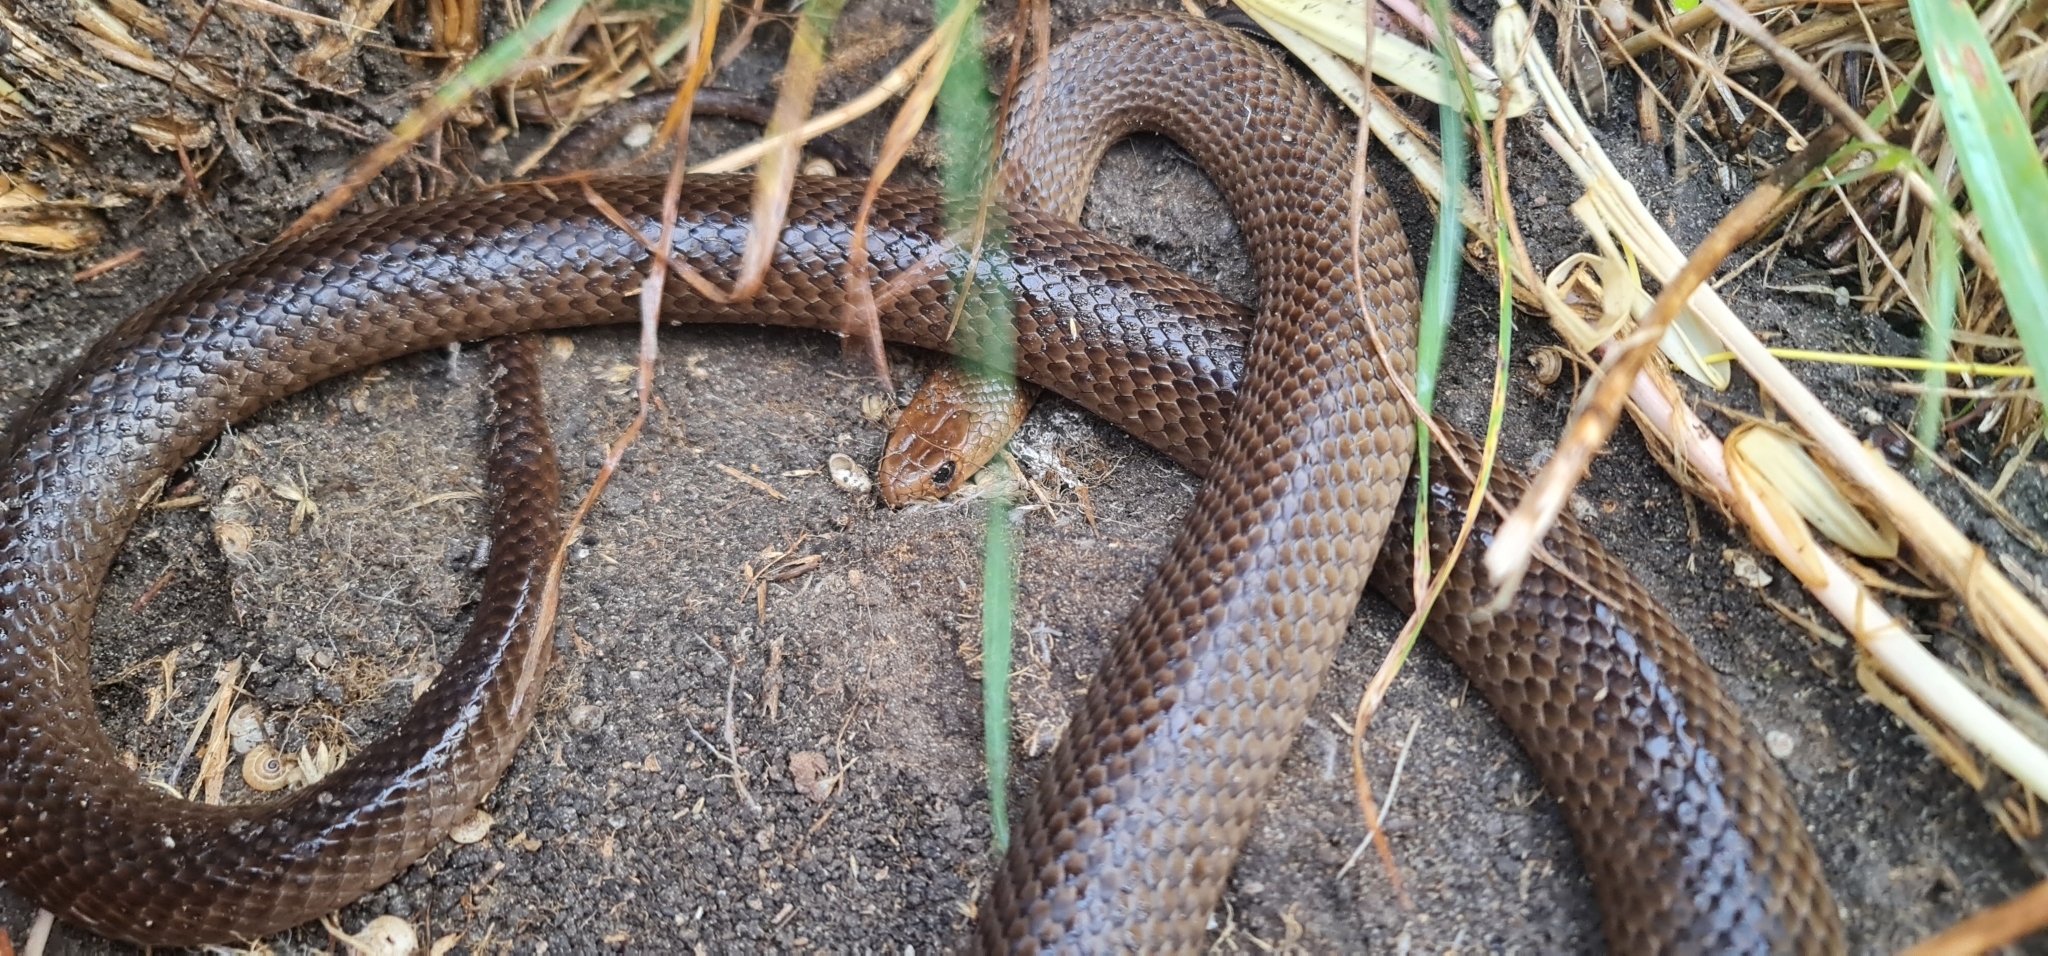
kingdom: Animalia
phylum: Chordata
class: Squamata
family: Elapidae
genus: Pseudonaja
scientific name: Pseudonaja textilis
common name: Eastern brown snake
